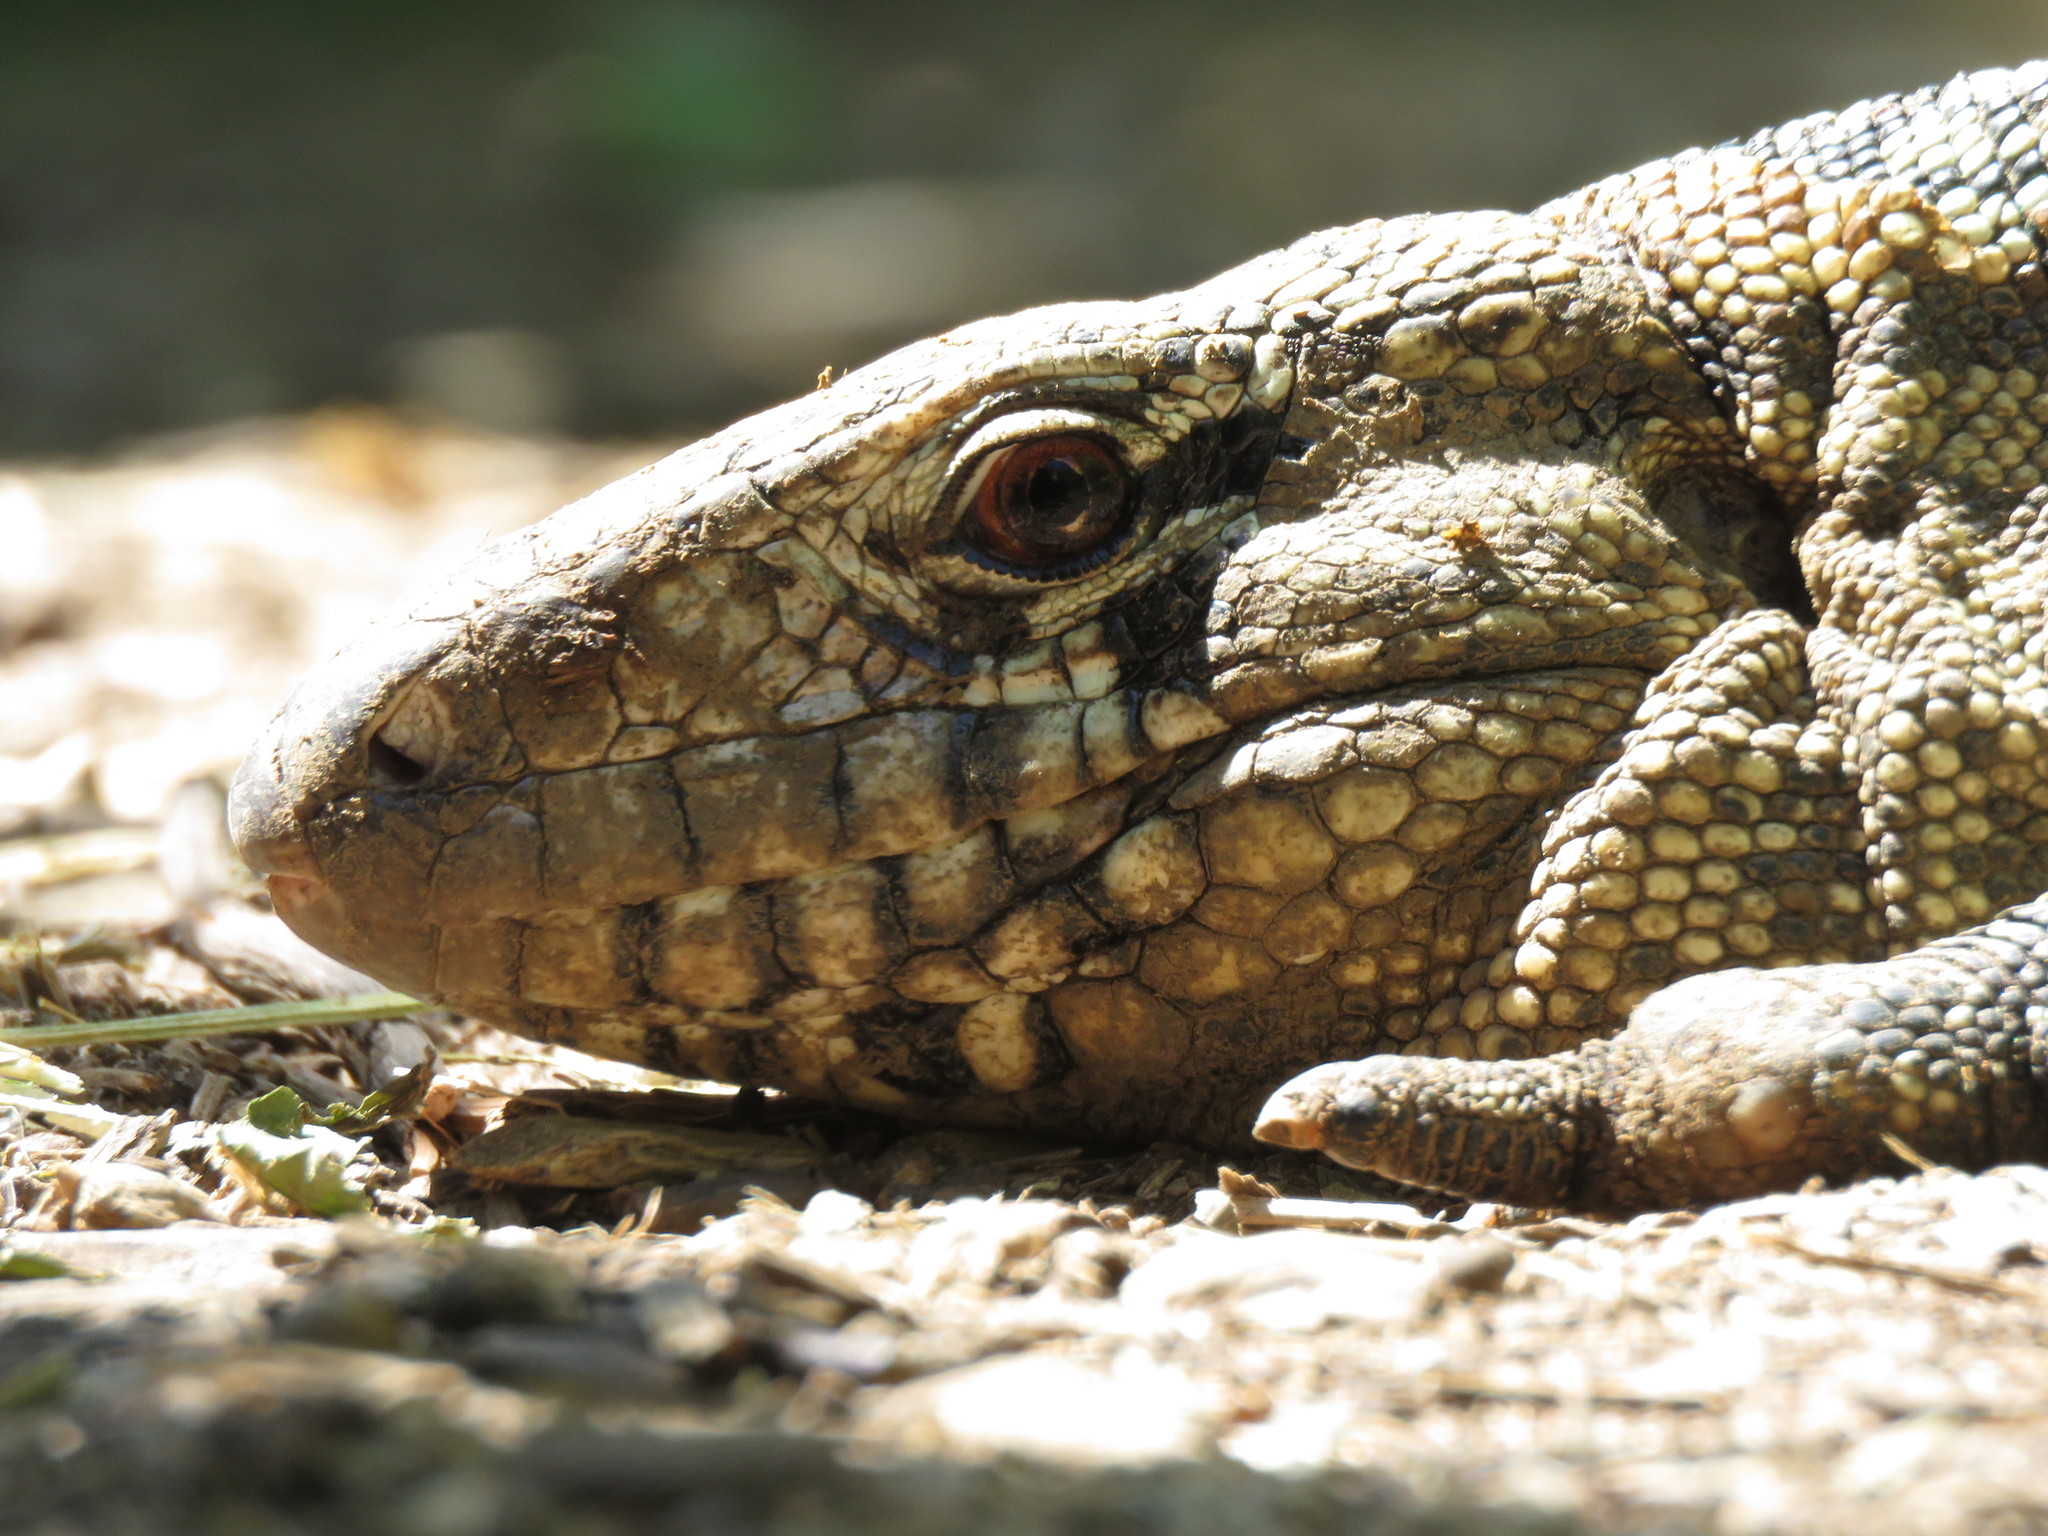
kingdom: Animalia
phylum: Chordata
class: Squamata
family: Teiidae
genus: Salvator
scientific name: Salvator merianae
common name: Argentine black and white tegu
